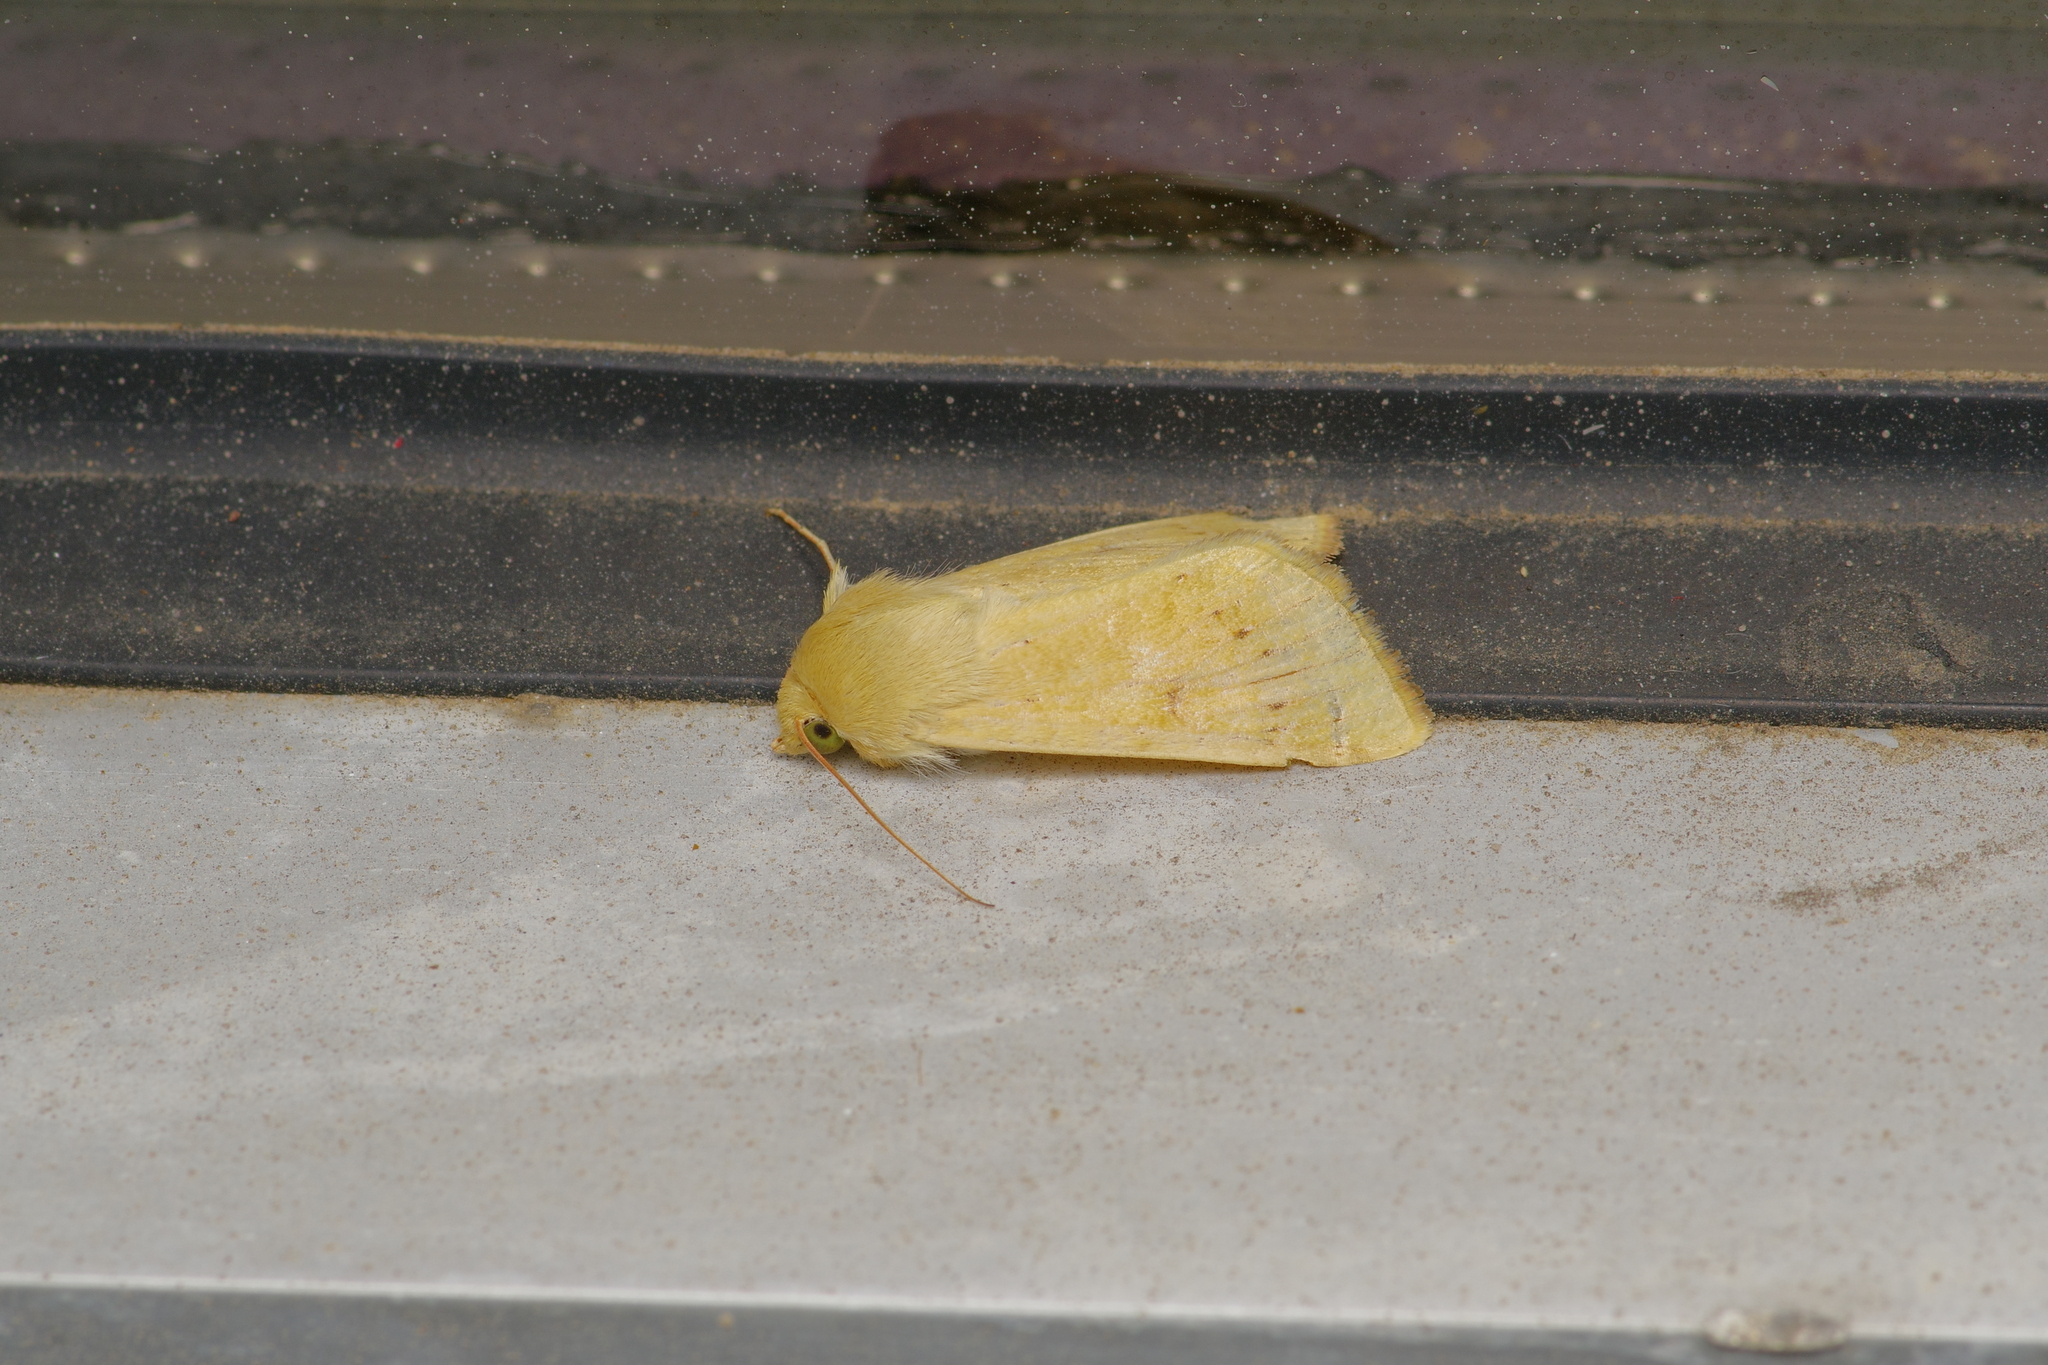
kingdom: Animalia
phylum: Arthropoda
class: Insecta
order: Lepidoptera
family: Noctuidae
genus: Helicoverpa
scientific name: Helicoverpa zea
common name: Bollworm
